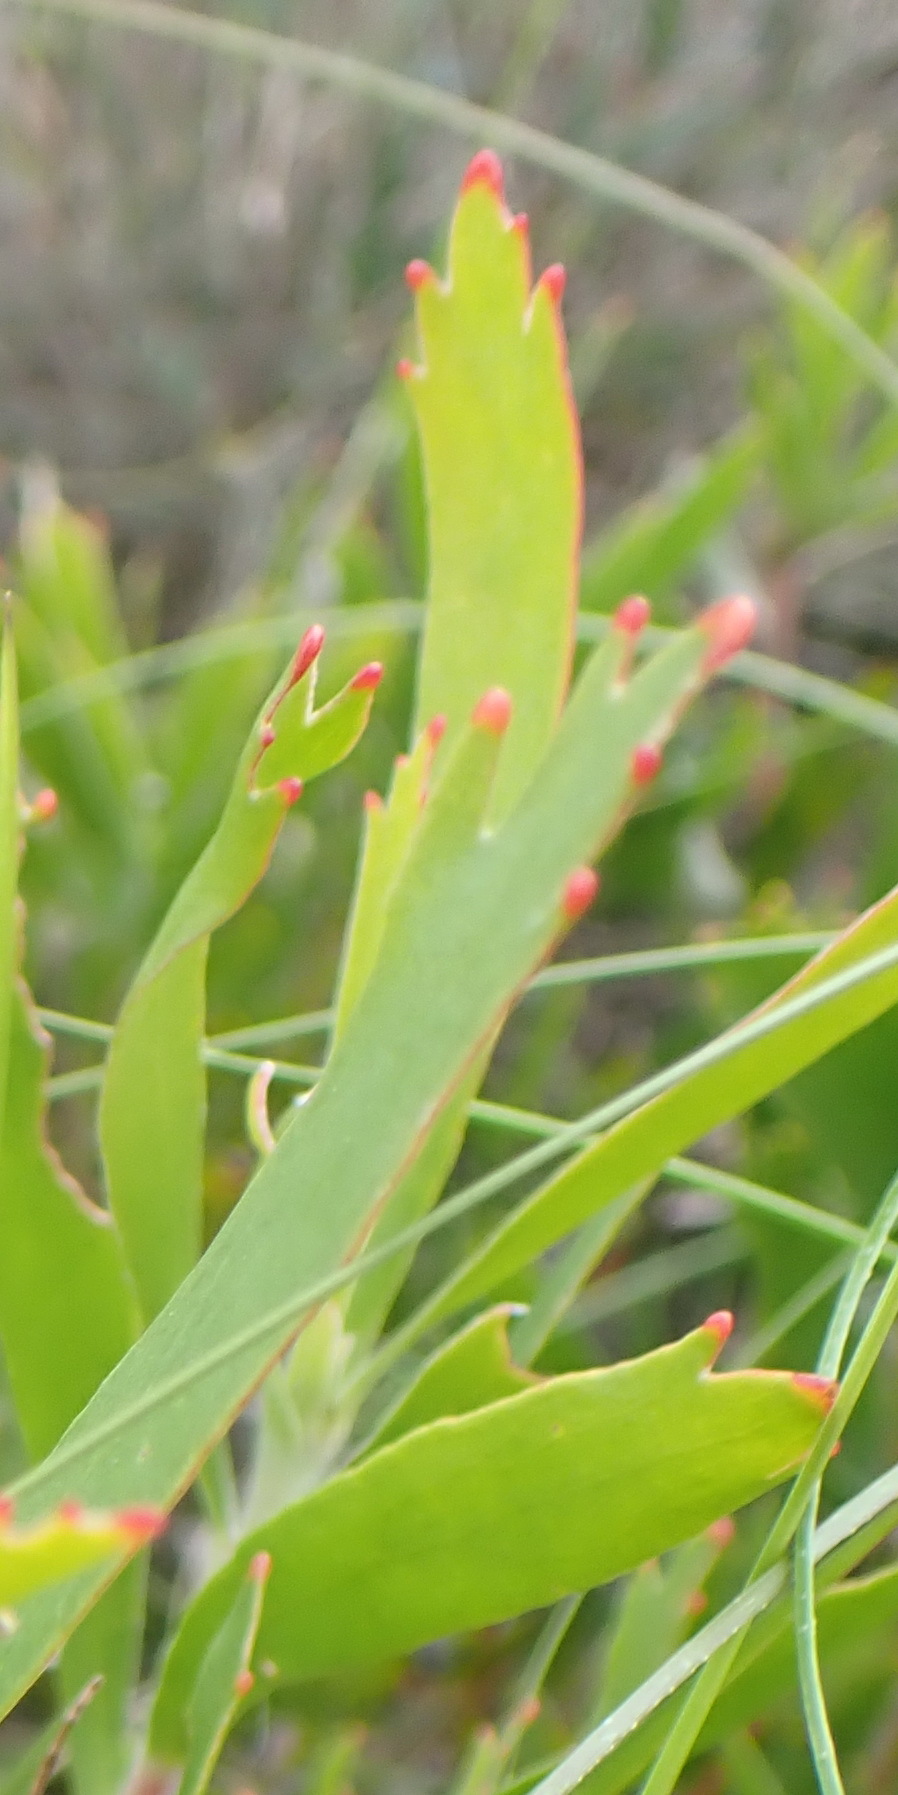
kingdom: Plantae
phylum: Tracheophyta
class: Magnoliopsida
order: Proteales
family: Proteaceae
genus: Leucospermum
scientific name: Leucospermum cuneiforme
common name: Common pincushion
